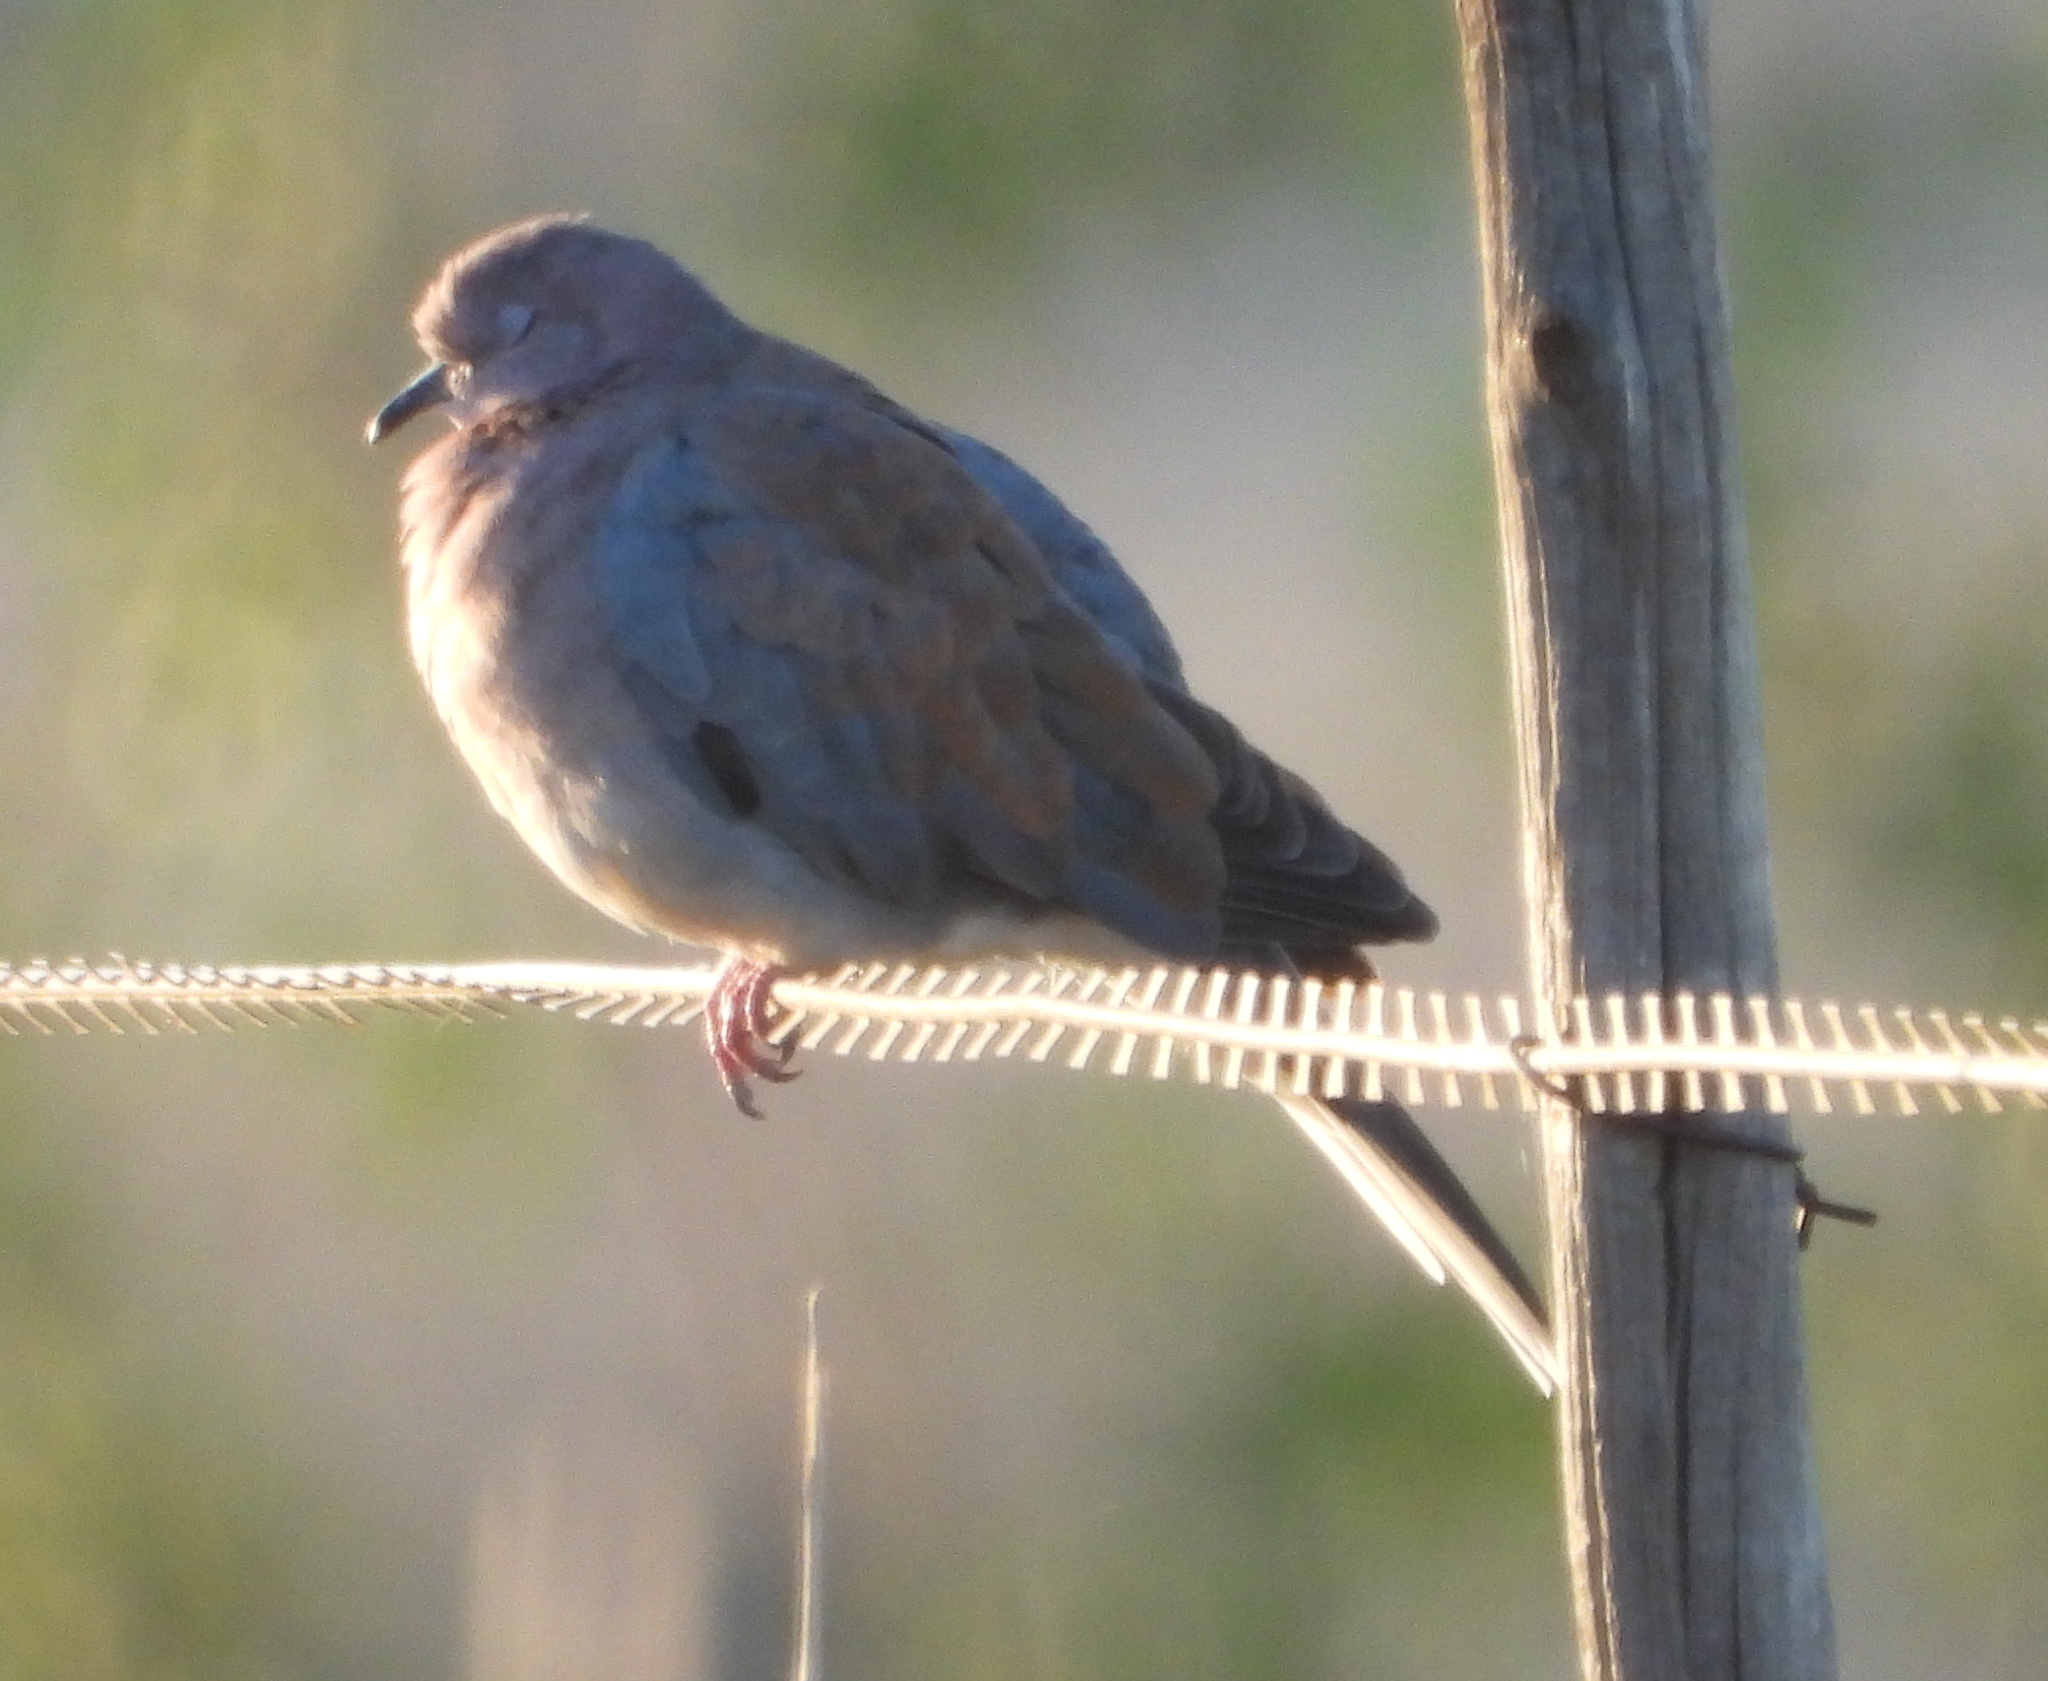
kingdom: Animalia
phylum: Chordata
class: Aves
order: Columbiformes
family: Columbidae
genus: Spilopelia
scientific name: Spilopelia senegalensis
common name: Laughing dove
